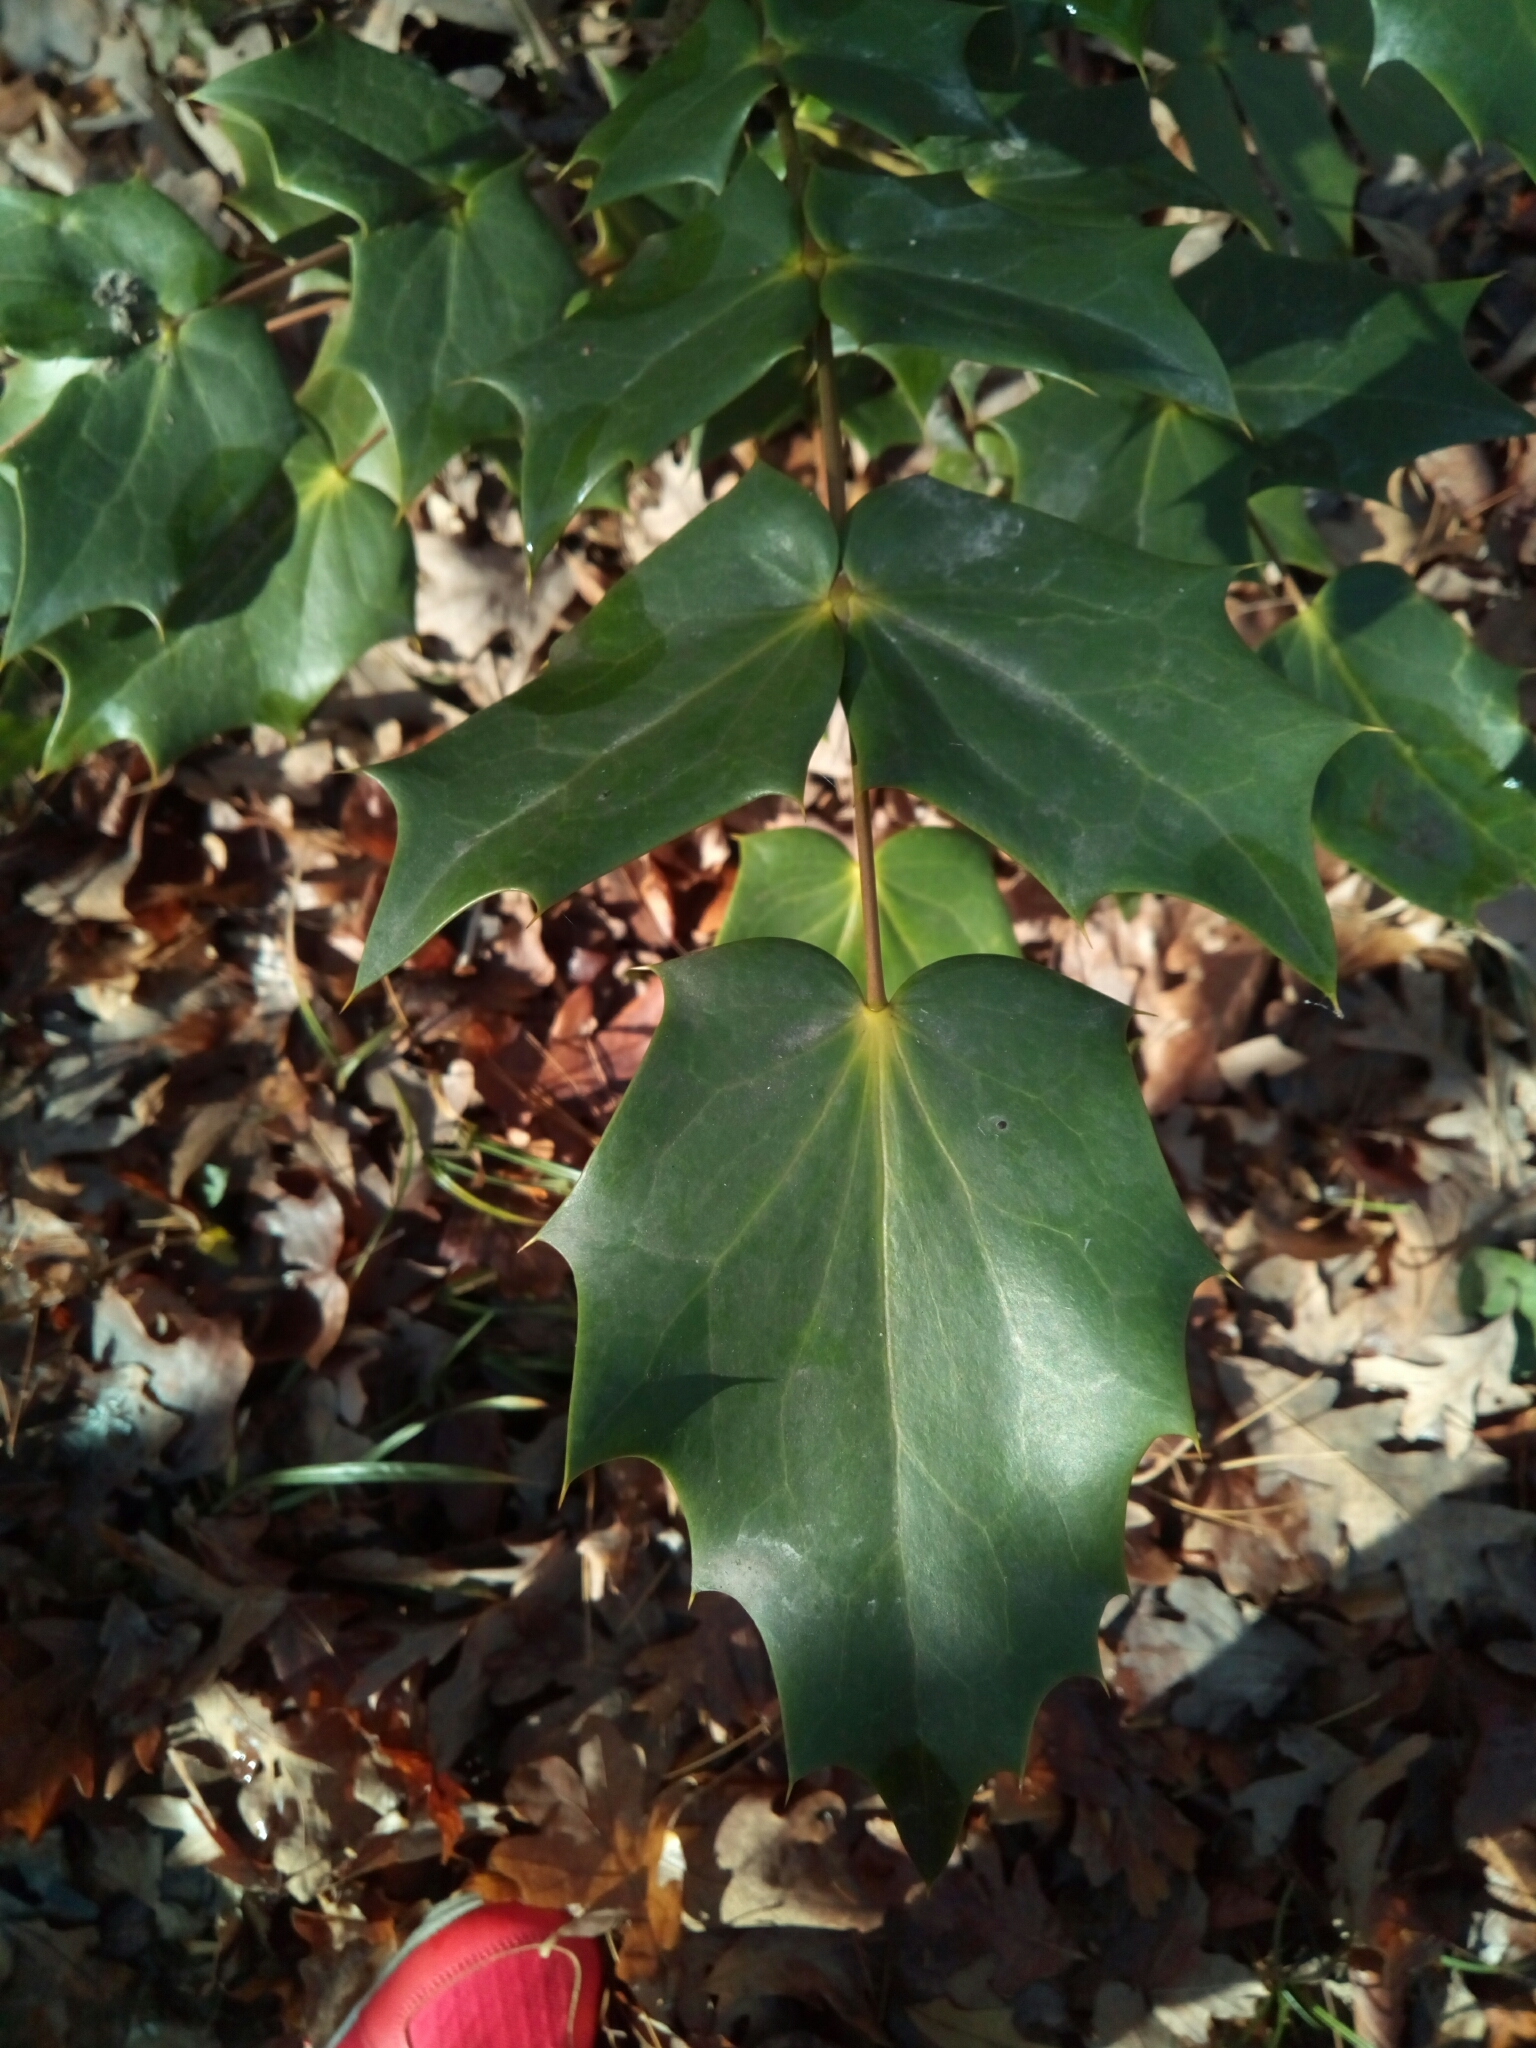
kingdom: Plantae
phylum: Tracheophyta
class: Magnoliopsida
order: Ranunculales
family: Berberidaceae
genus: Mahonia
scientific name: Mahonia bealei
